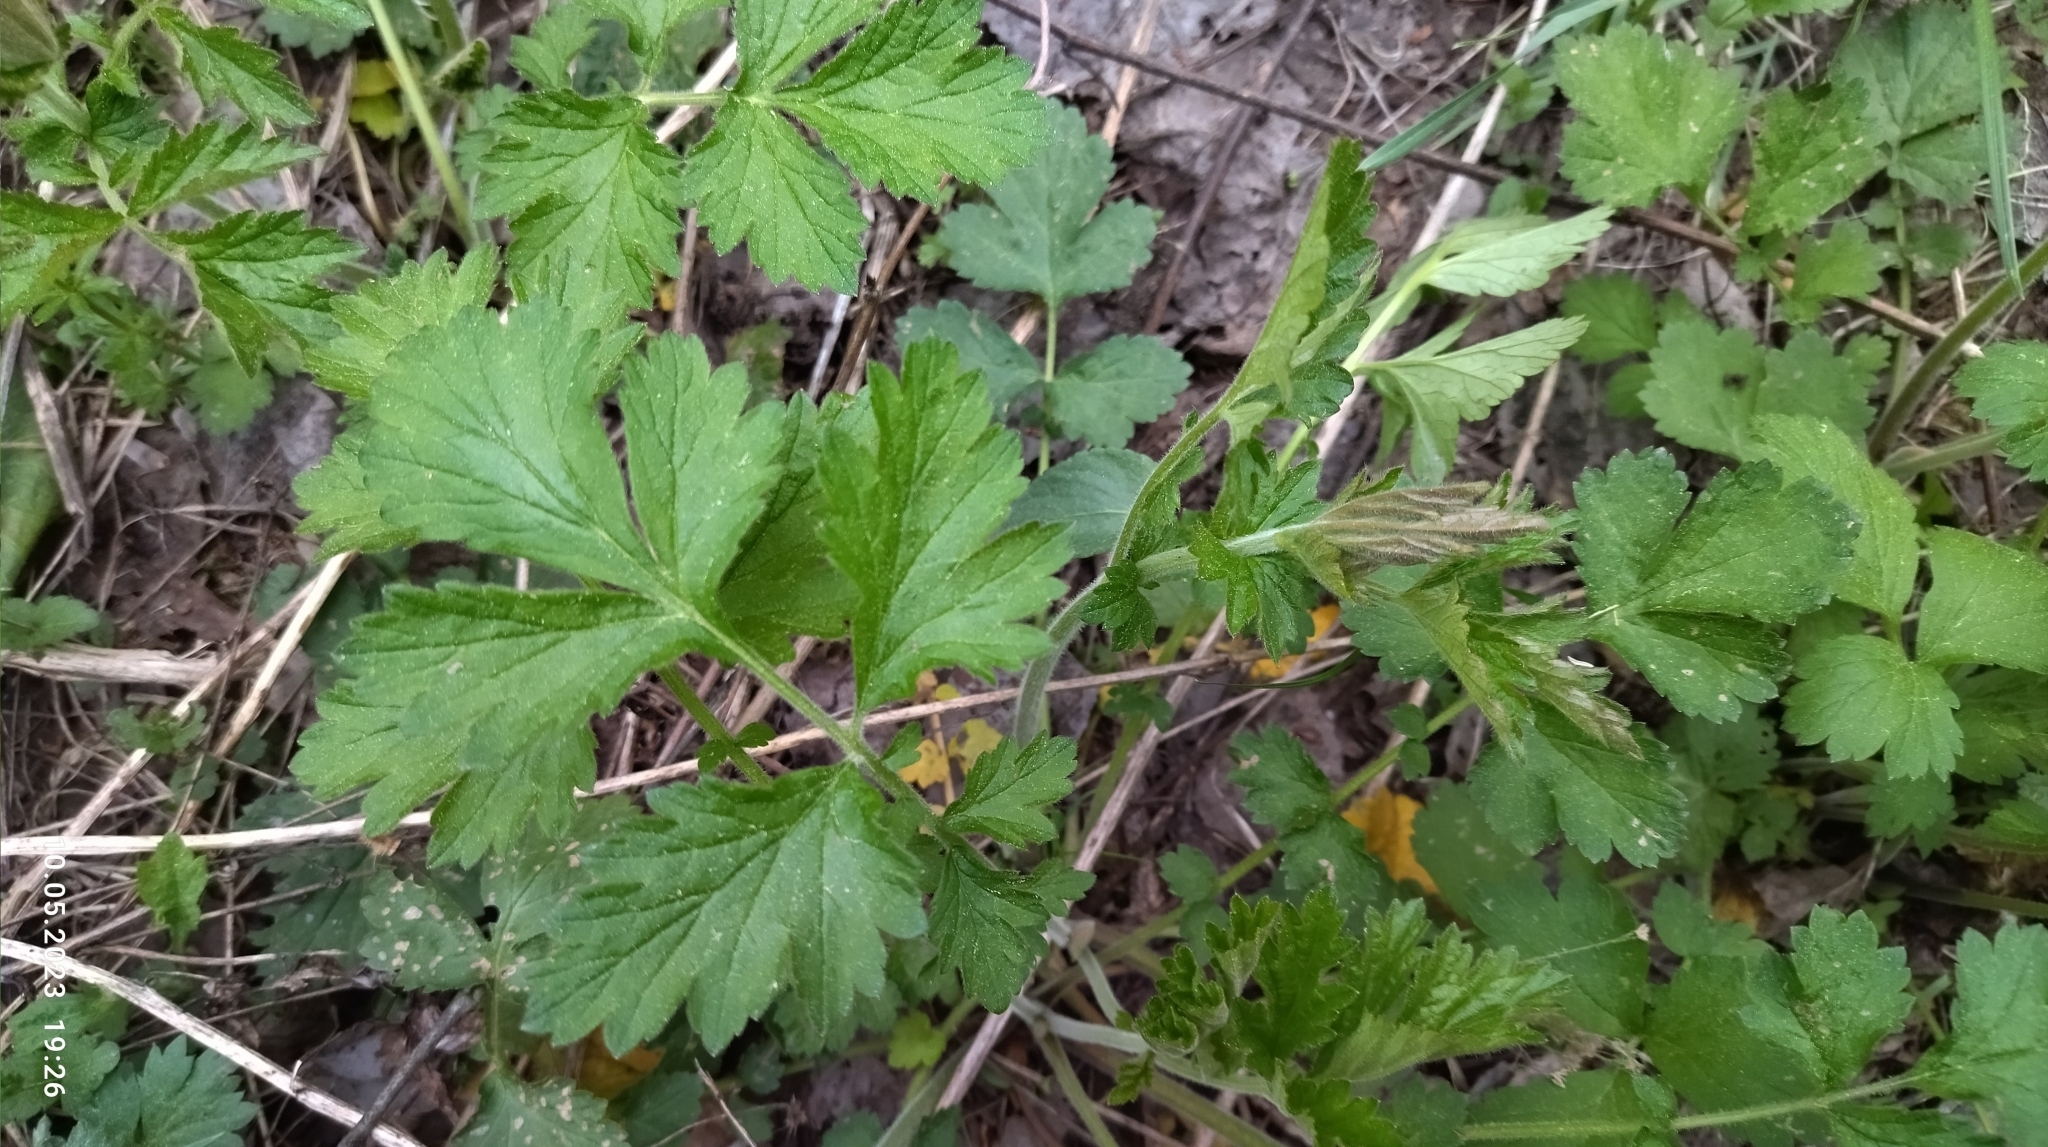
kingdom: Plantae
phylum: Tracheophyta
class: Magnoliopsida
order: Rosales
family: Rosaceae
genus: Geum
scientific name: Geum rivale
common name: Water avens
